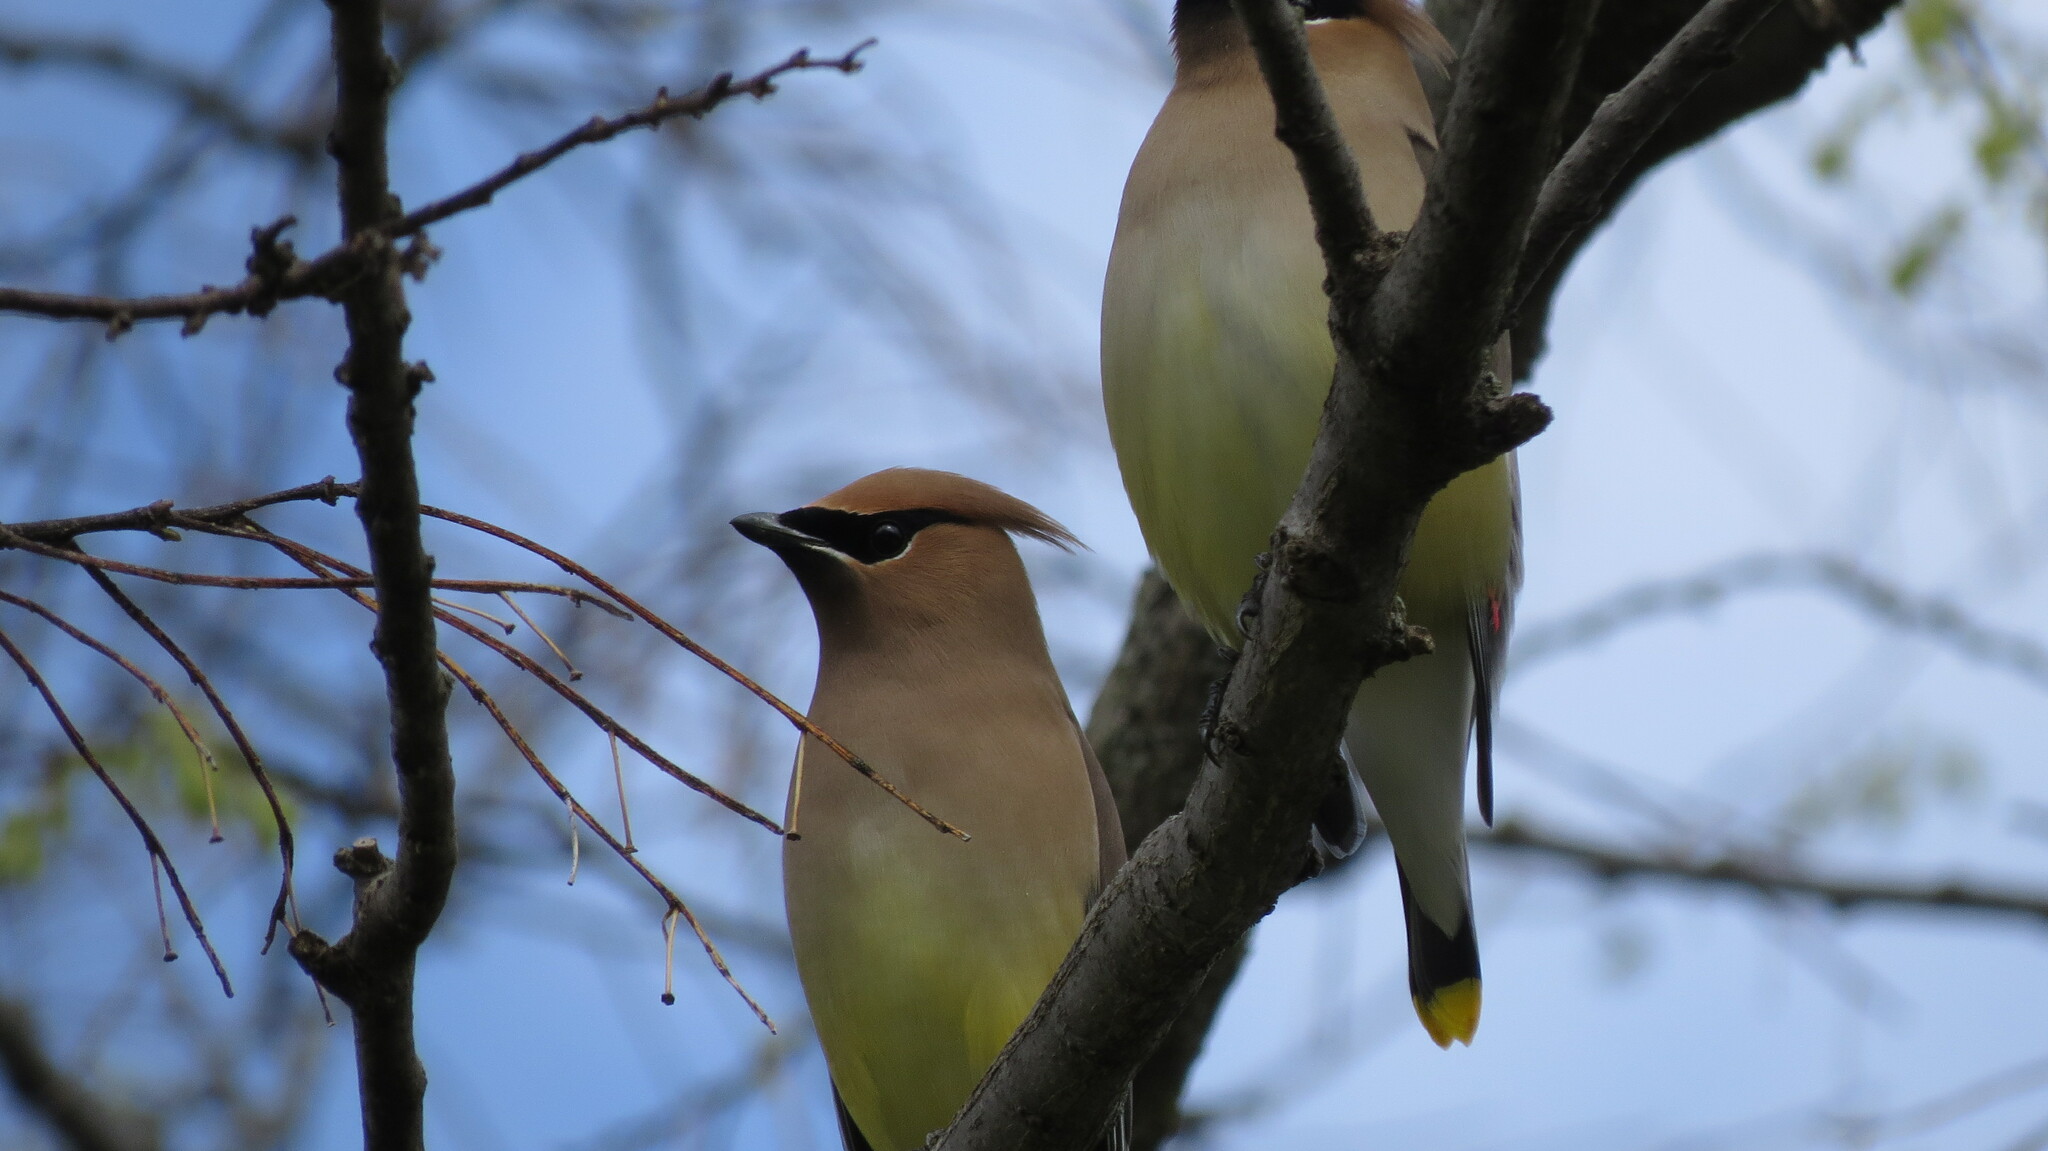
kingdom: Animalia
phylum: Chordata
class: Aves
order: Passeriformes
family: Bombycillidae
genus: Bombycilla
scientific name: Bombycilla cedrorum
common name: Cedar waxwing
